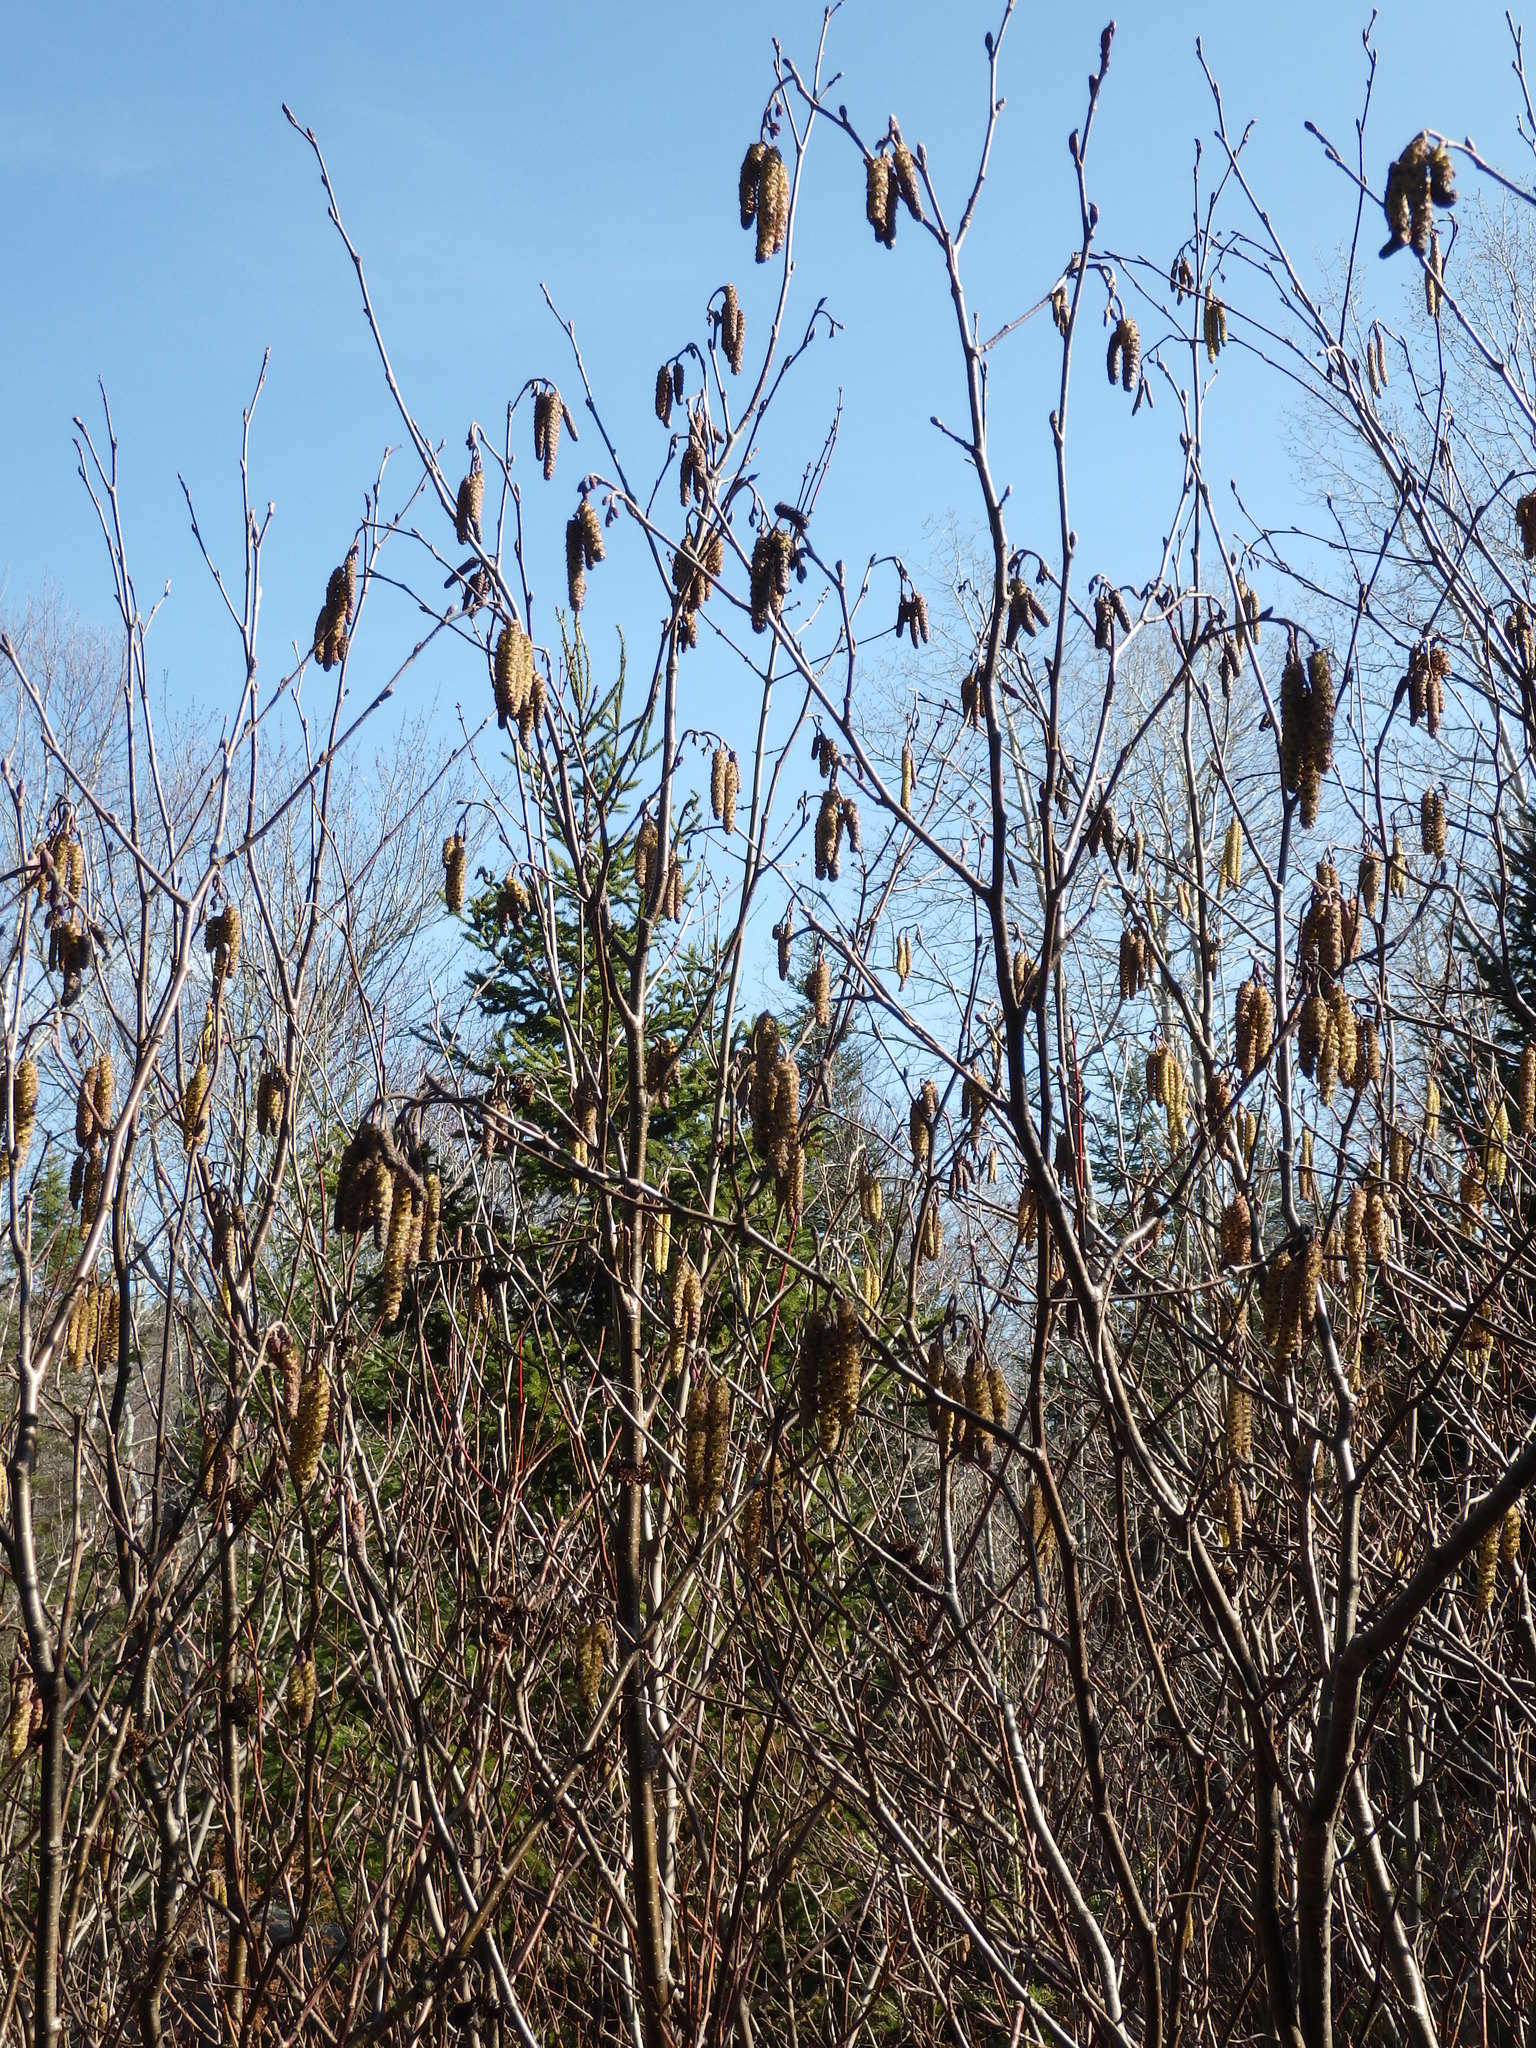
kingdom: Plantae
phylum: Tracheophyta
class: Magnoliopsida
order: Fagales
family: Betulaceae
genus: Alnus
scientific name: Alnus alnobetula
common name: Green alder
